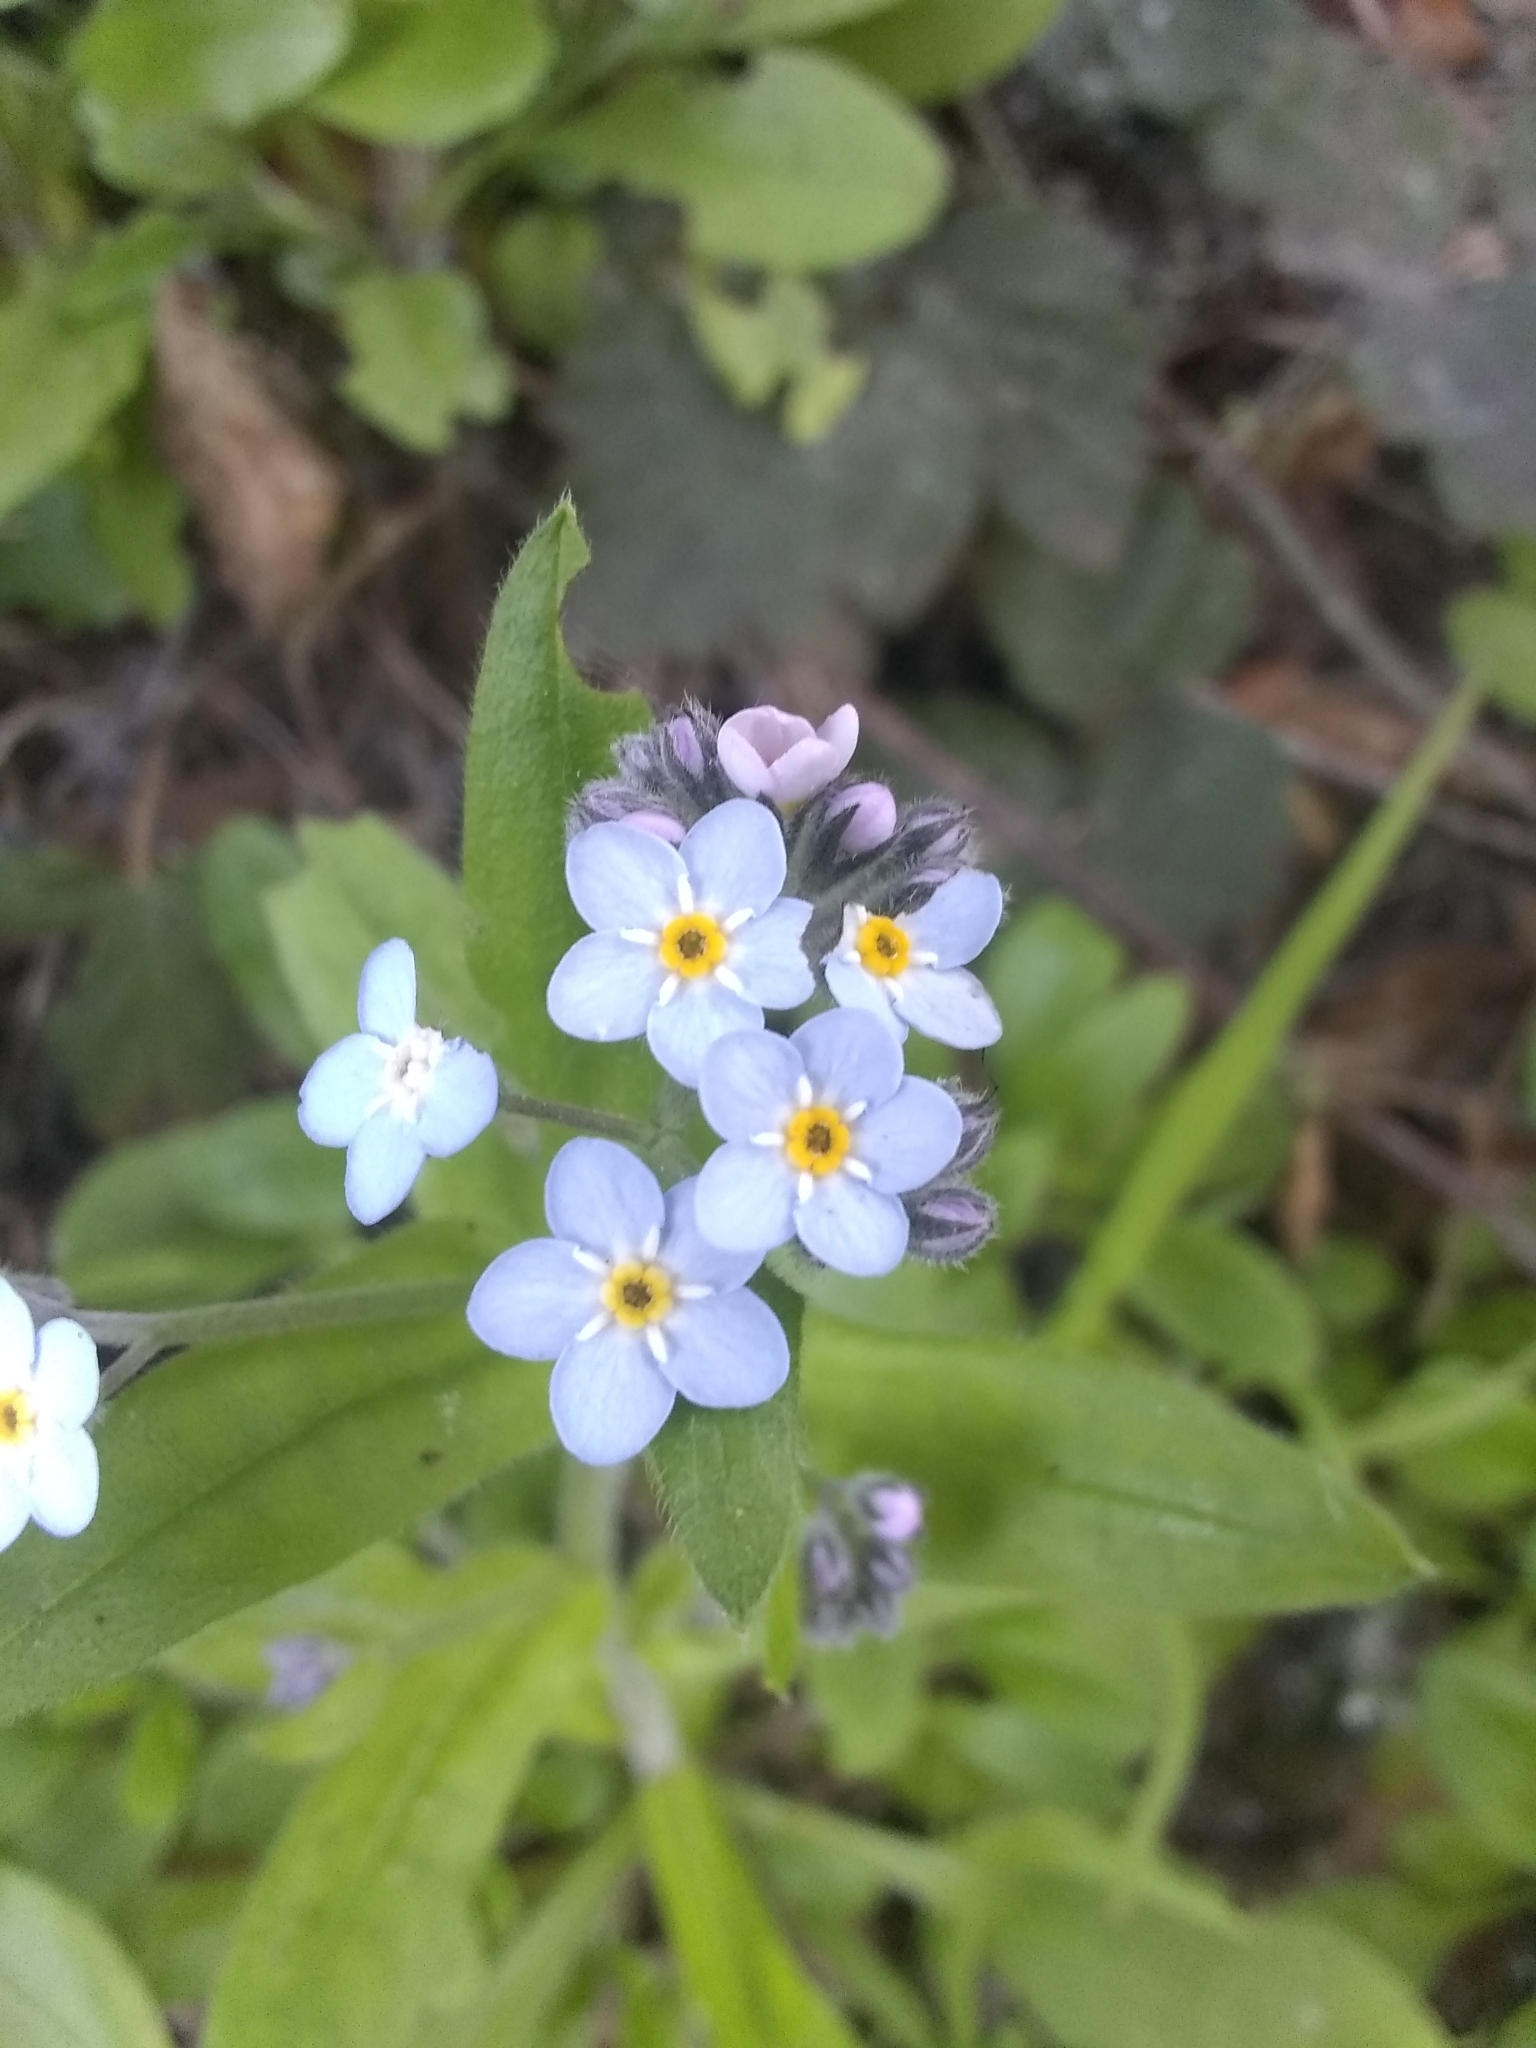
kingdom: Plantae
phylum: Tracheophyta
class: Magnoliopsida
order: Boraginales
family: Boraginaceae
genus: Myosotis
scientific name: Myosotis latifolia
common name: Broadleaf forget-me-not
